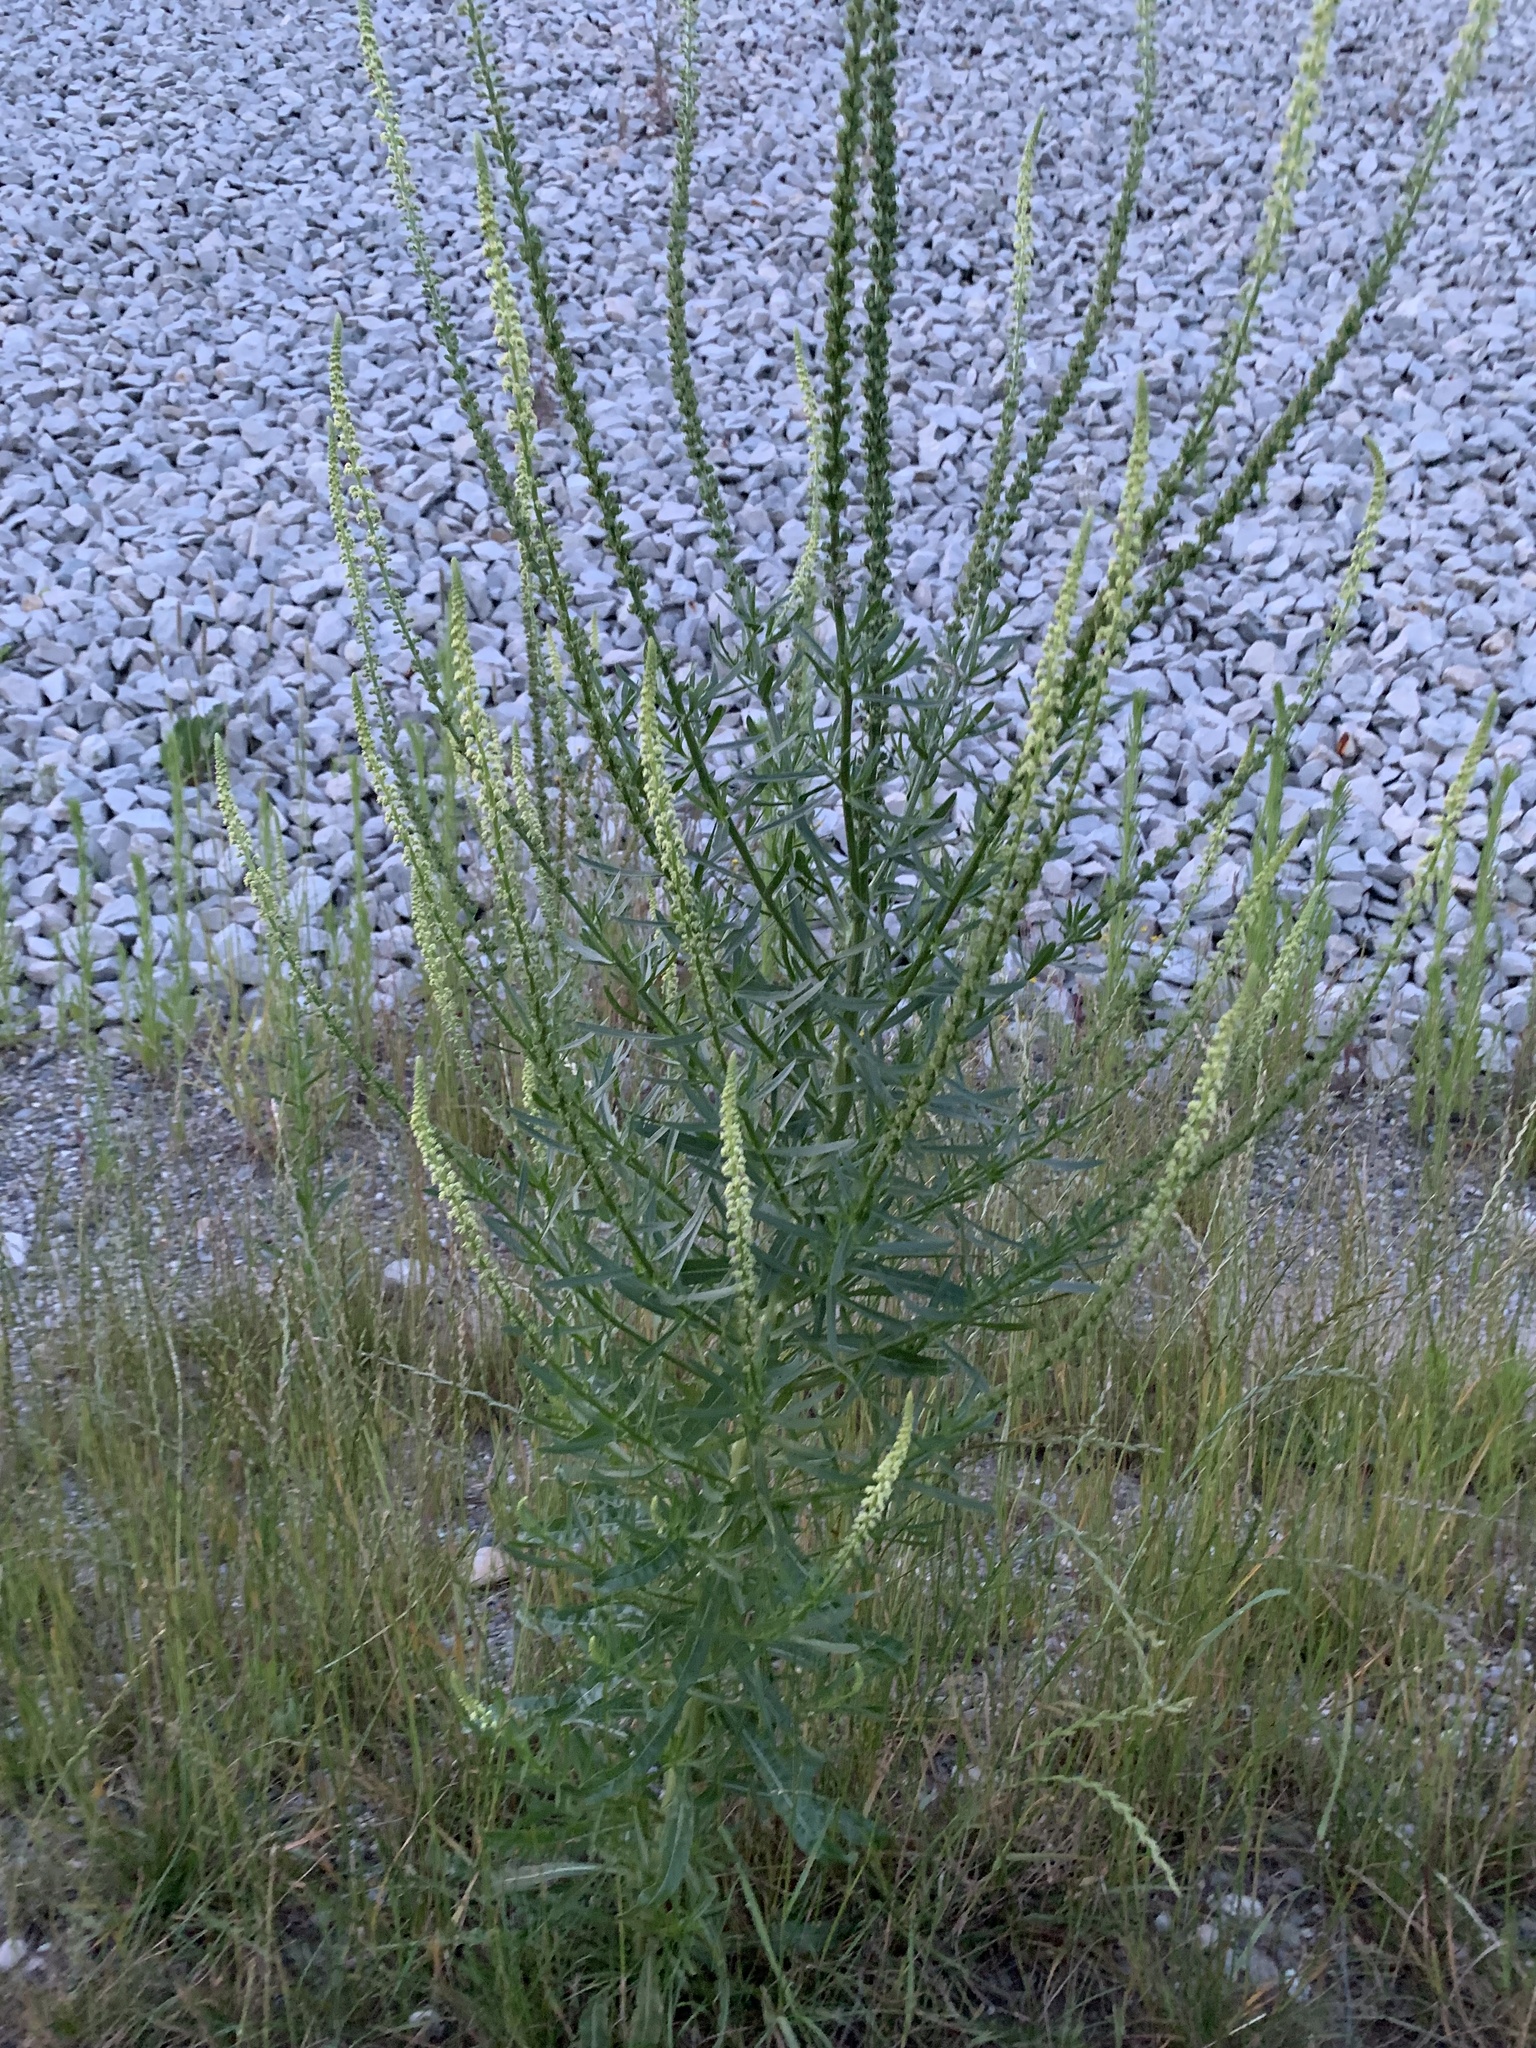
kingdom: Plantae
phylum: Tracheophyta
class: Magnoliopsida
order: Brassicales
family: Resedaceae
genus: Reseda
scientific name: Reseda luteola
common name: Weld
